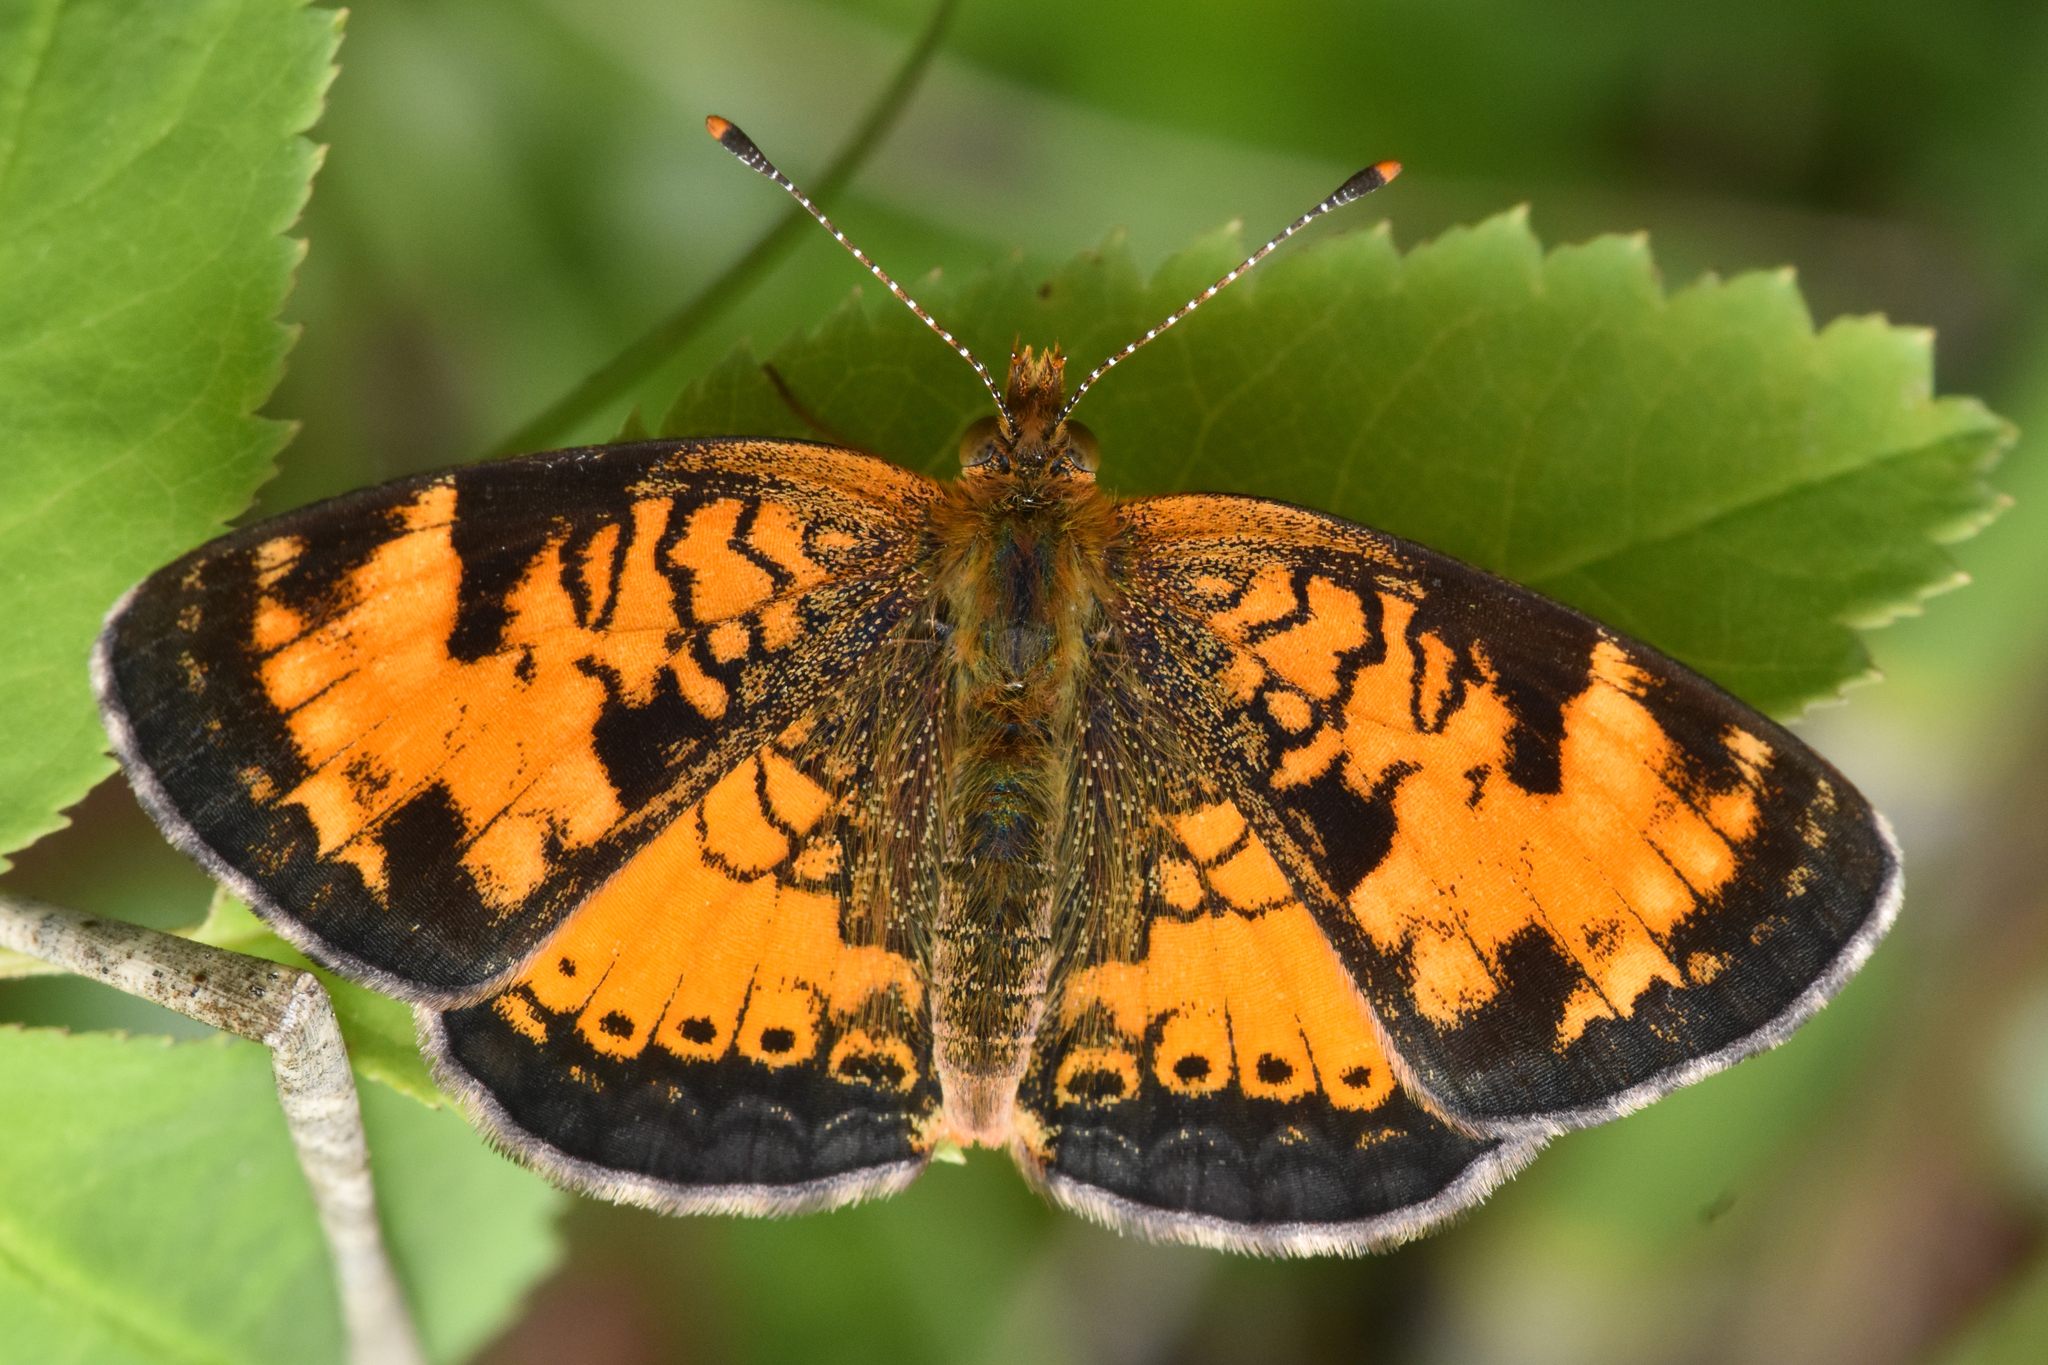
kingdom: Animalia
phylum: Arthropoda
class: Insecta
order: Lepidoptera
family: Nymphalidae
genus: Phyciodes
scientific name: Phyciodes tharos
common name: Pearl crescent
